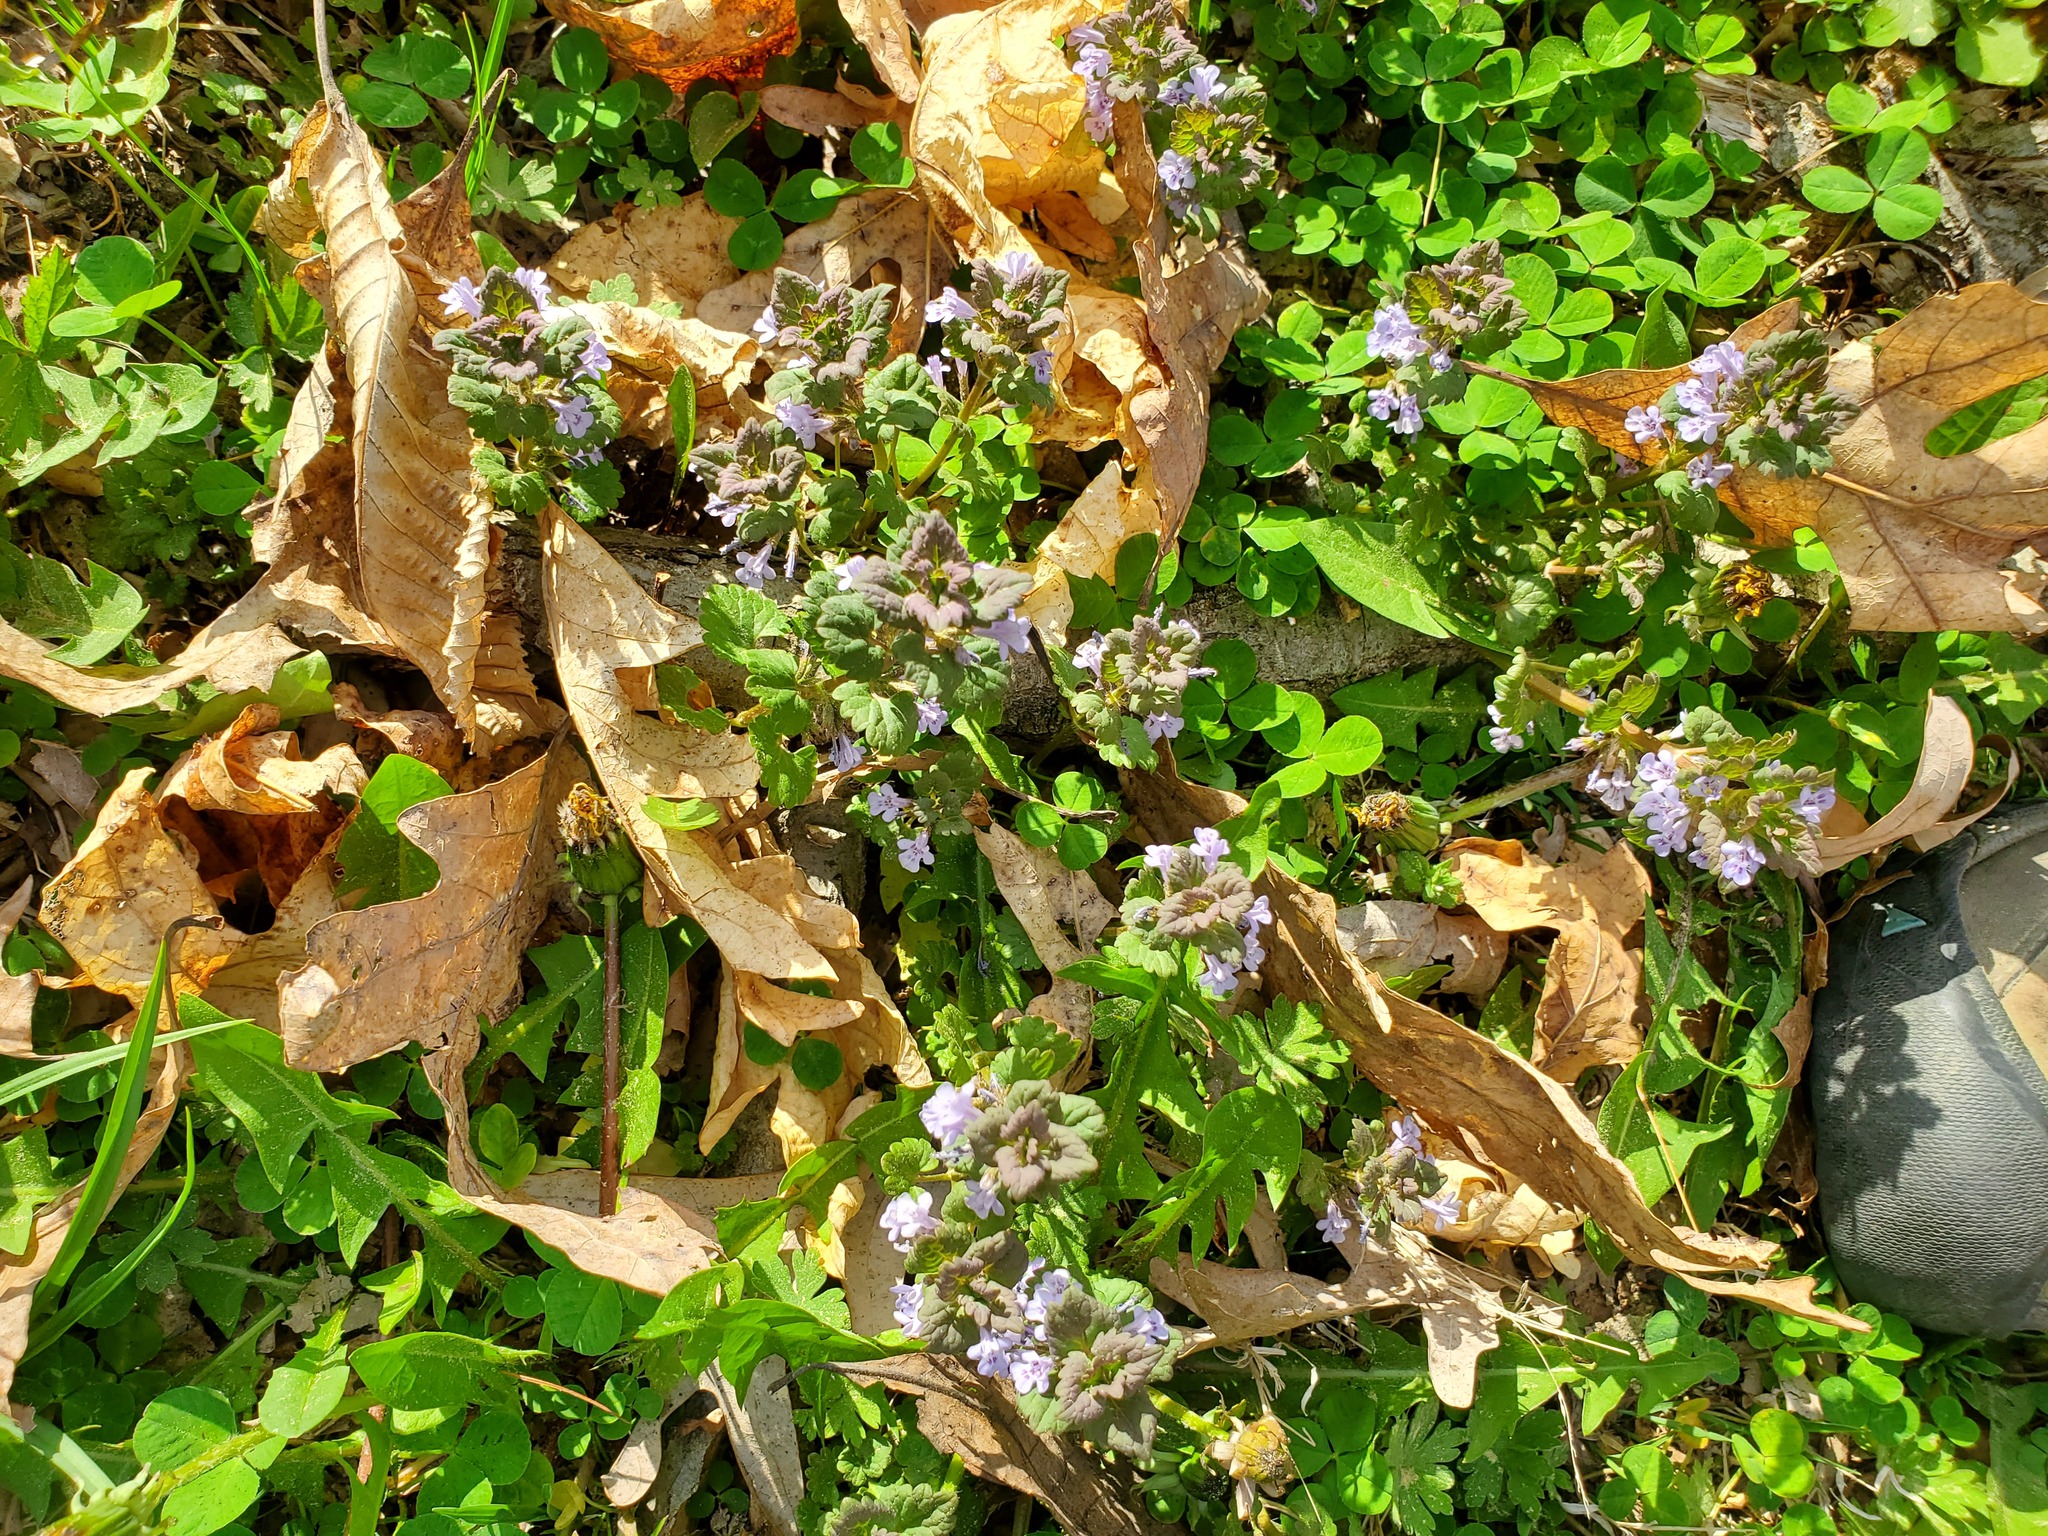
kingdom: Plantae
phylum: Tracheophyta
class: Magnoliopsida
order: Lamiales
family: Lamiaceae
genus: Glechoma
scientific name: Glechoma hederacea
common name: Ground ivy
